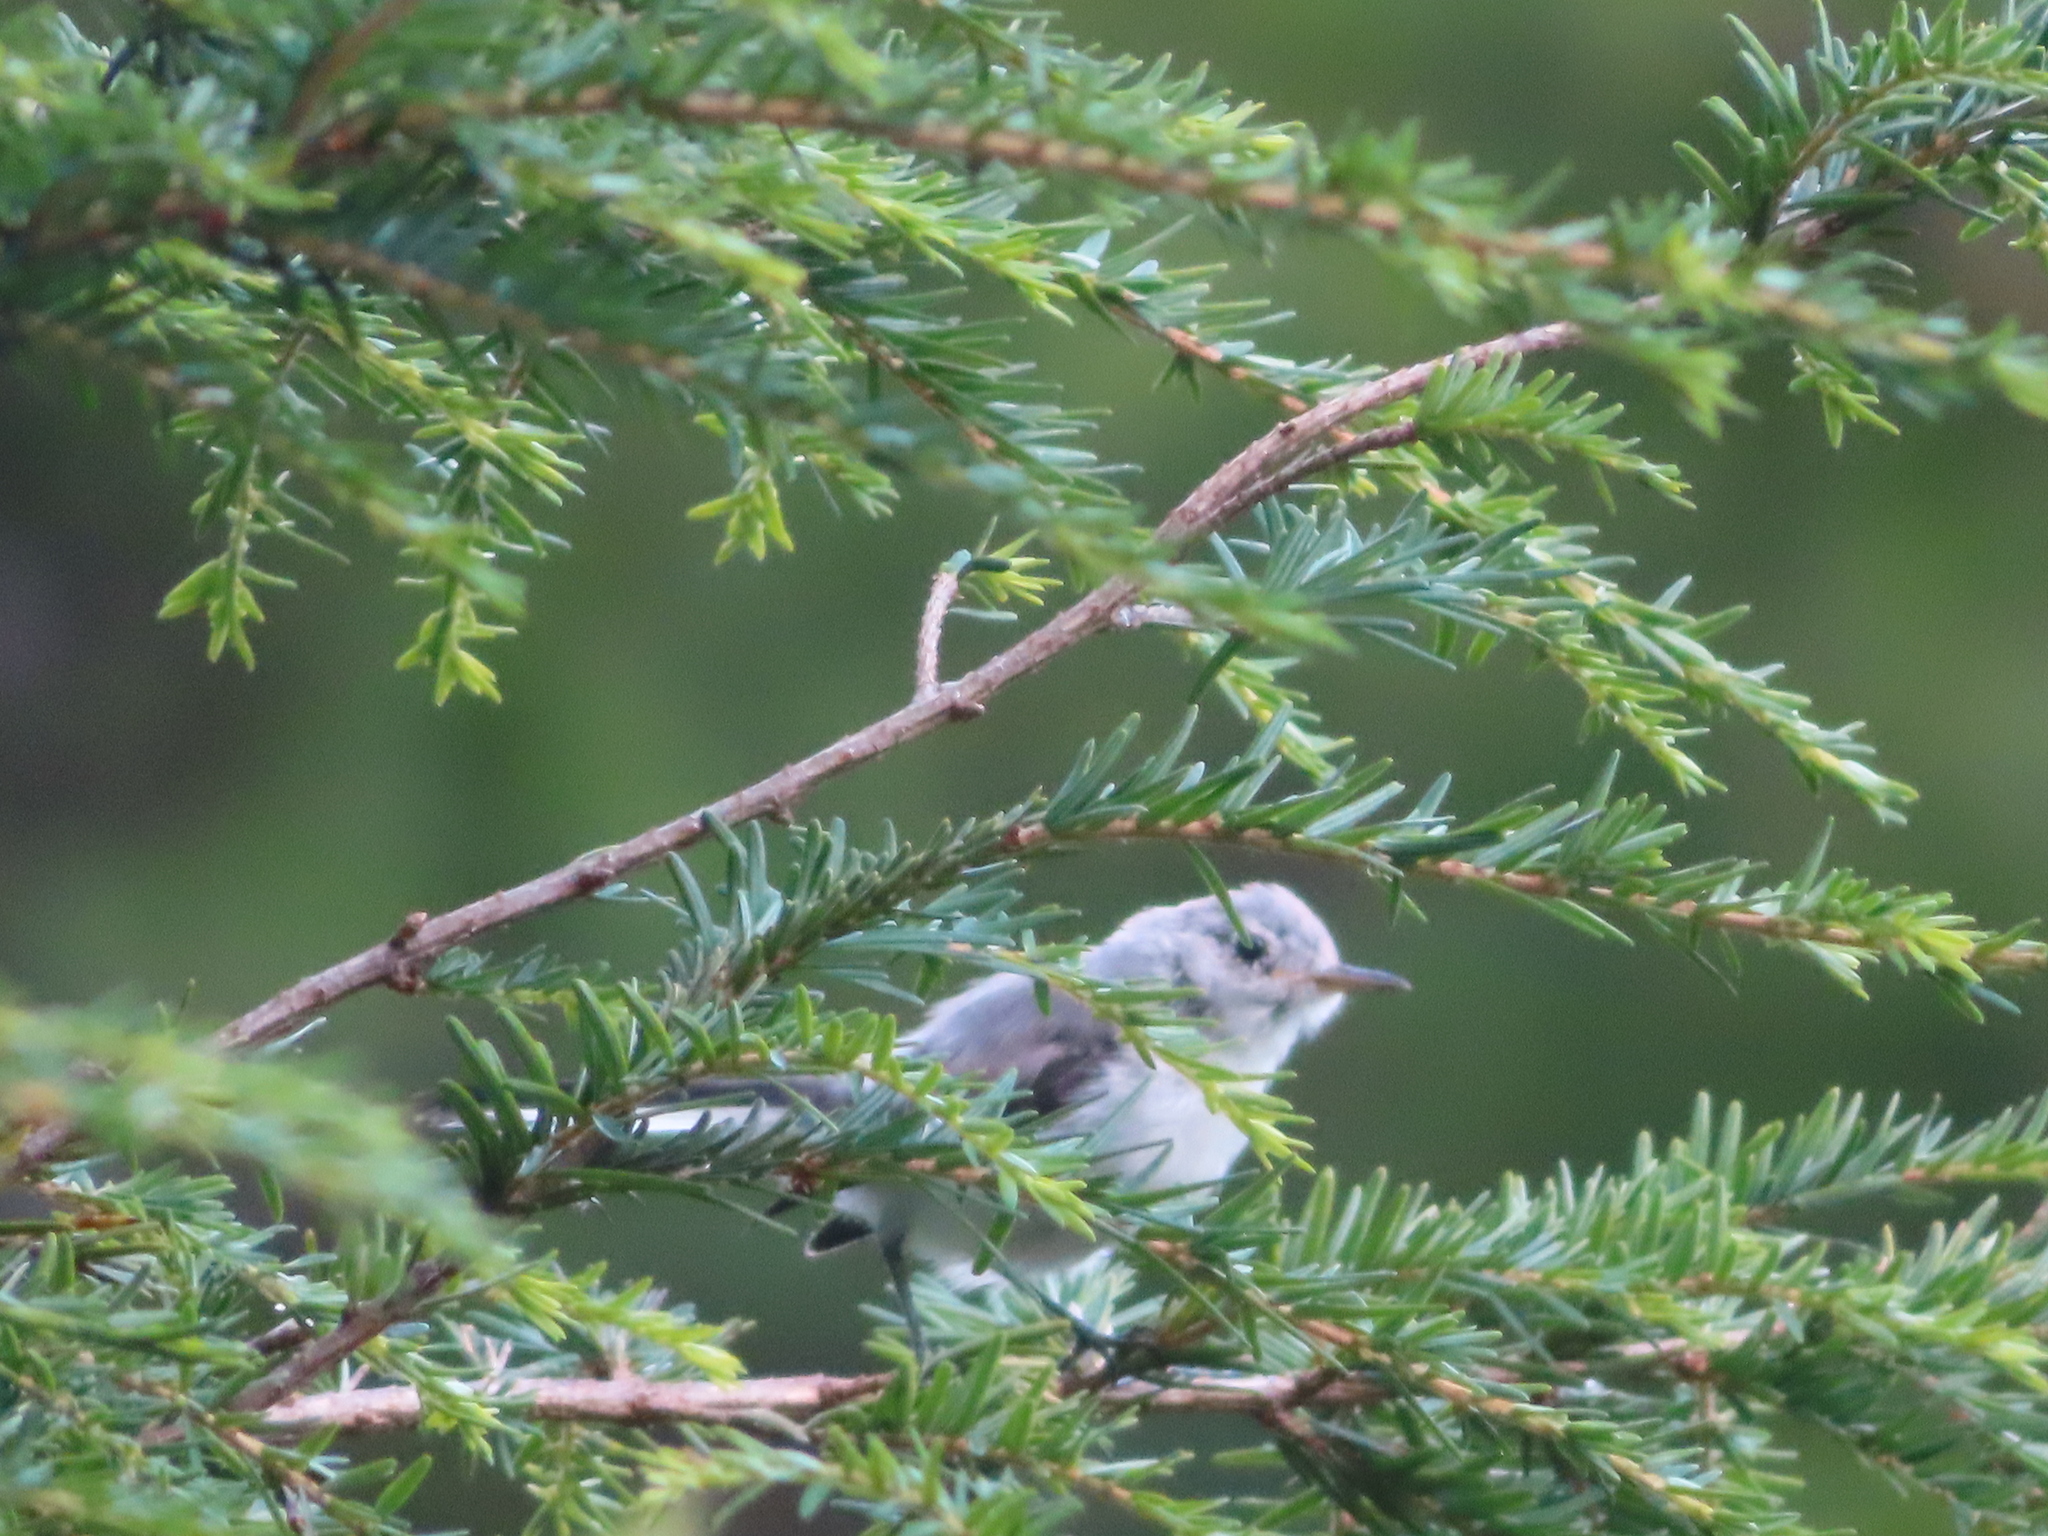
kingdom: Animalia
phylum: Chordata
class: Aves
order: Passeriformes
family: Polioptilidae
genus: Polioptila
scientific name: Polioptila caerulea
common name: Blue-gray gnatcatcher
